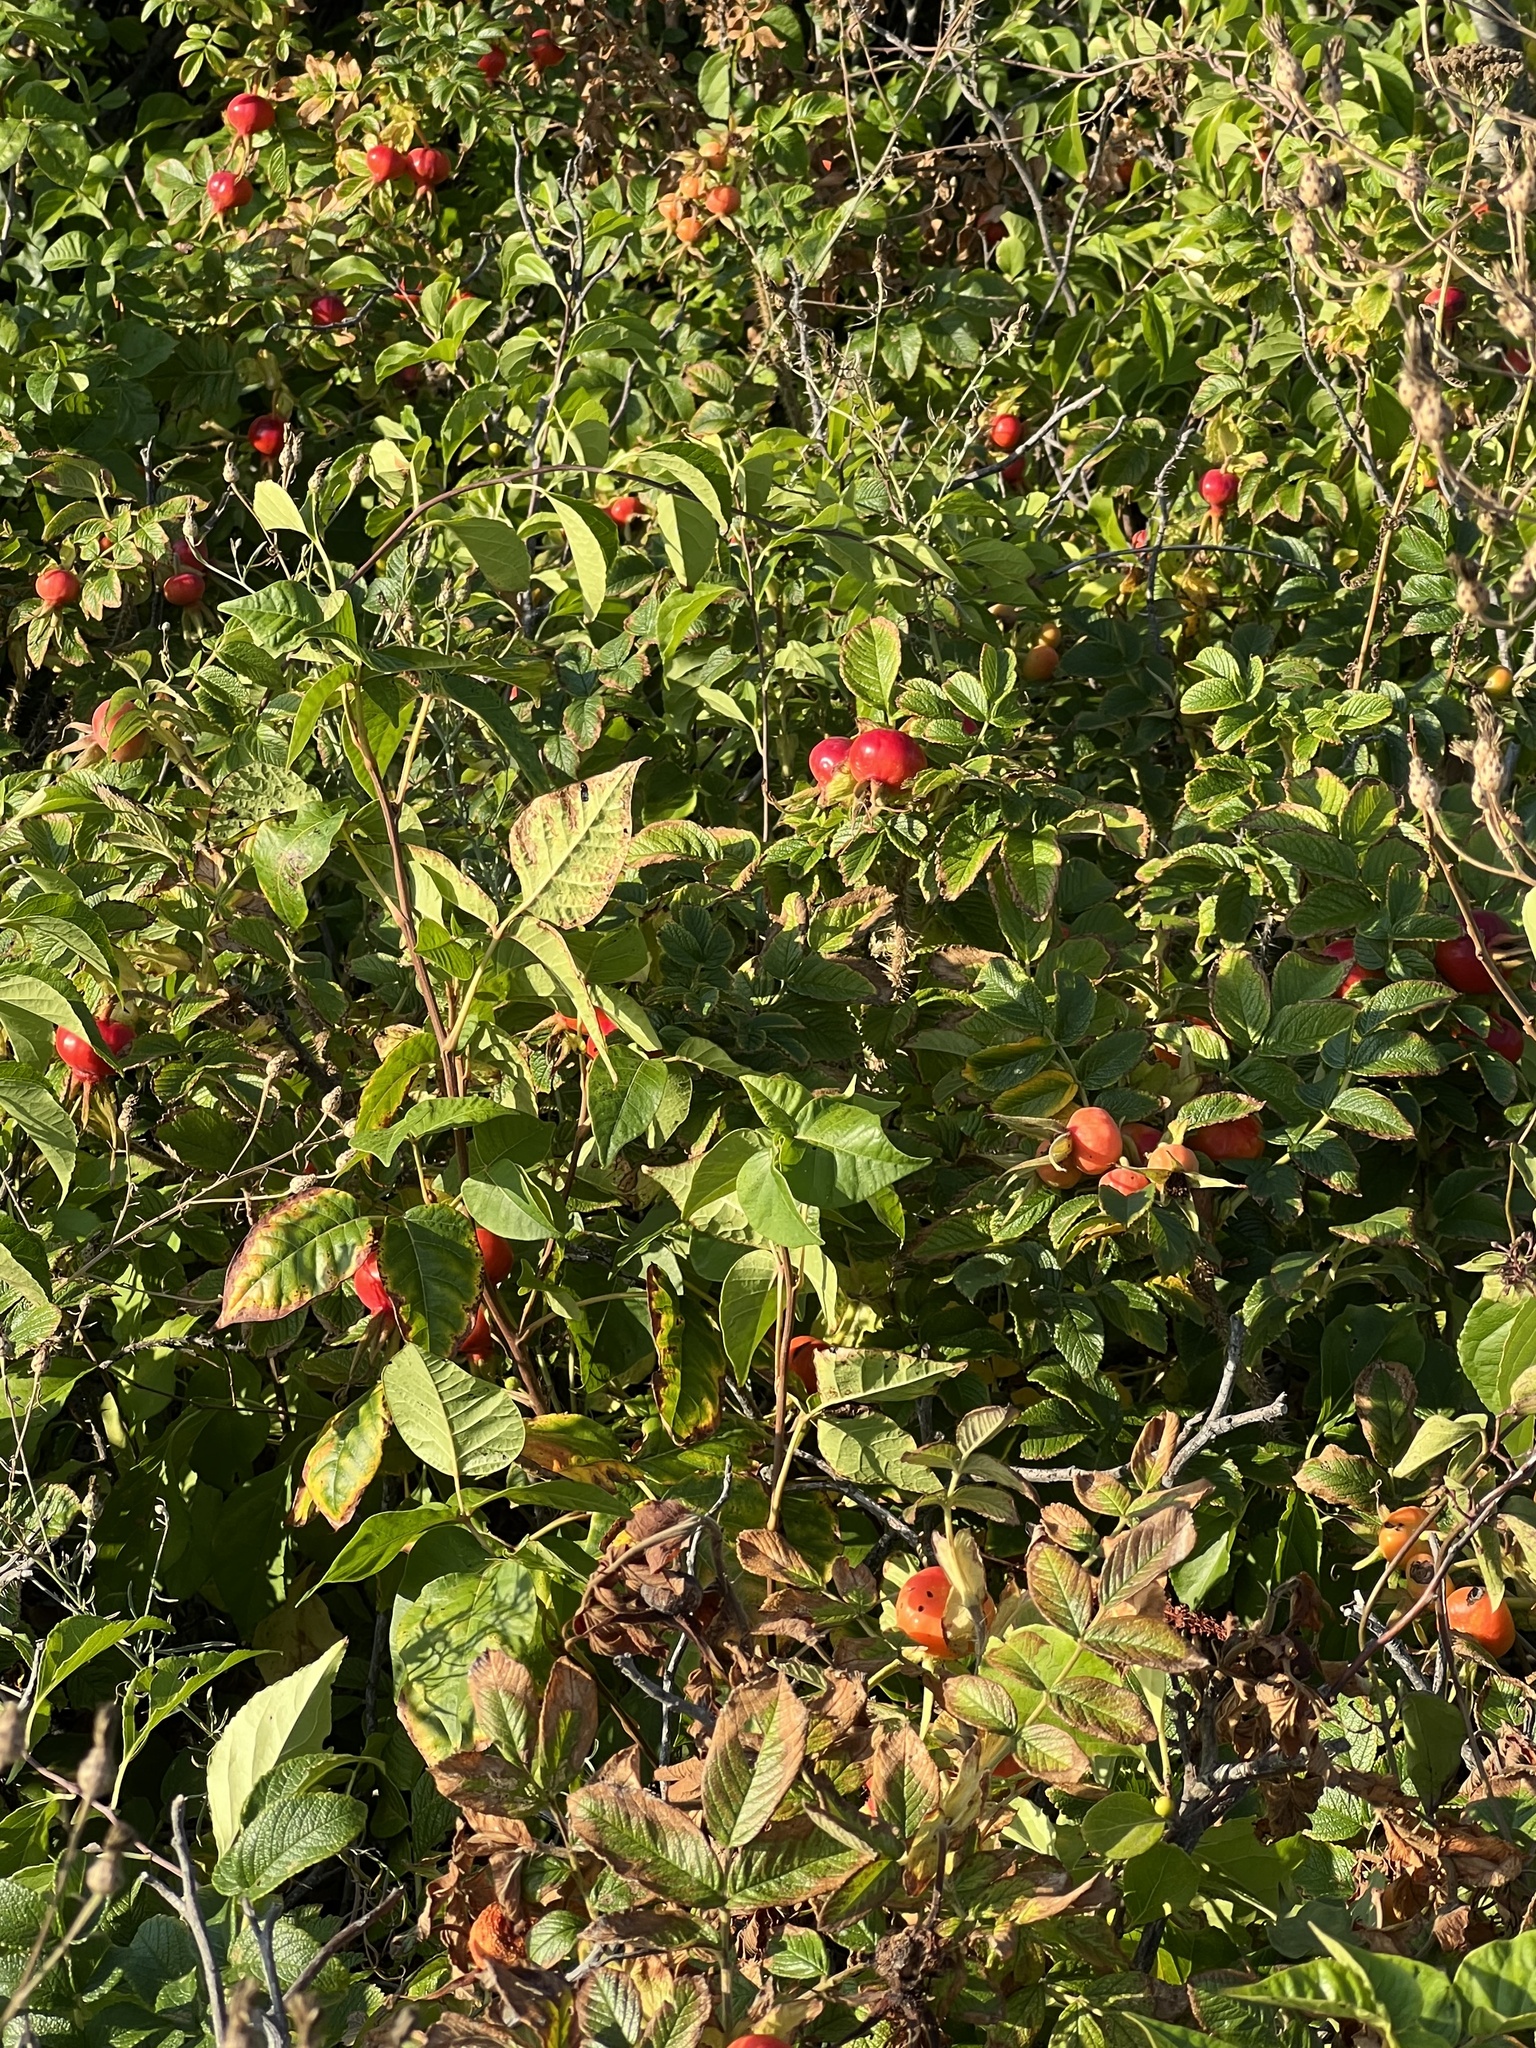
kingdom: Plantae
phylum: Tracheophyta
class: Magnoliopsida
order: Rosales
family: Rosaceae
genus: Rosa
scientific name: Rosa rugosa
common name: Japanese rose
